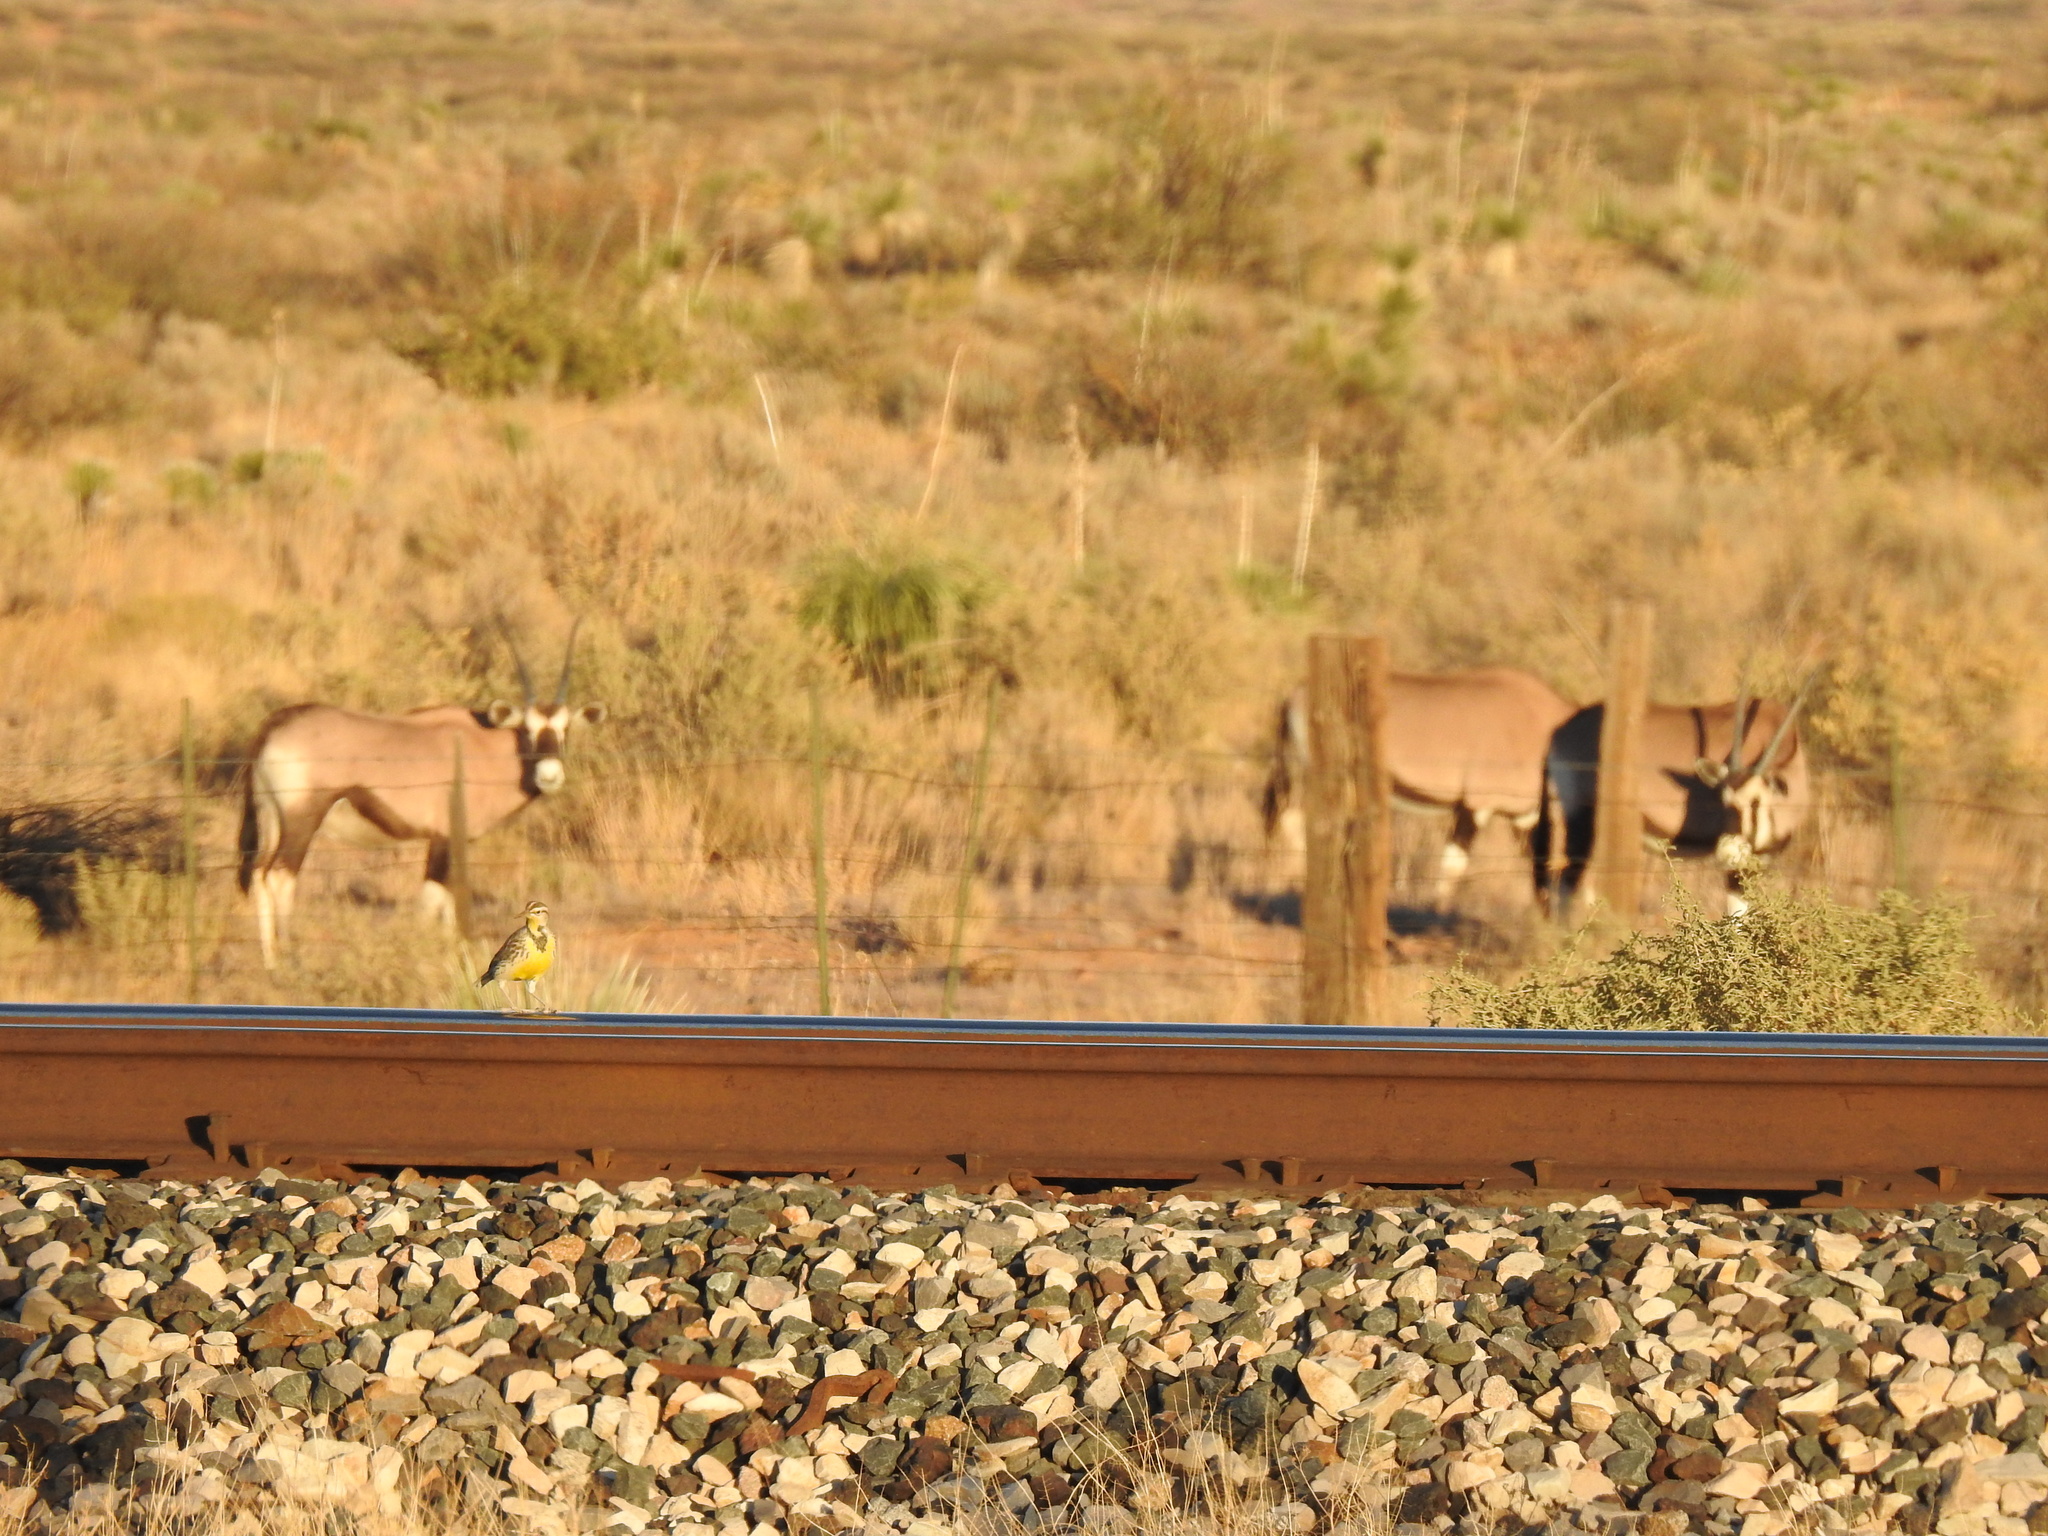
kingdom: Animalia
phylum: Chordata
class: Mammalia
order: Artiodactyla
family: Bovidae
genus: Oryx
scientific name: Oryx gazella
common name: Gemsbok
